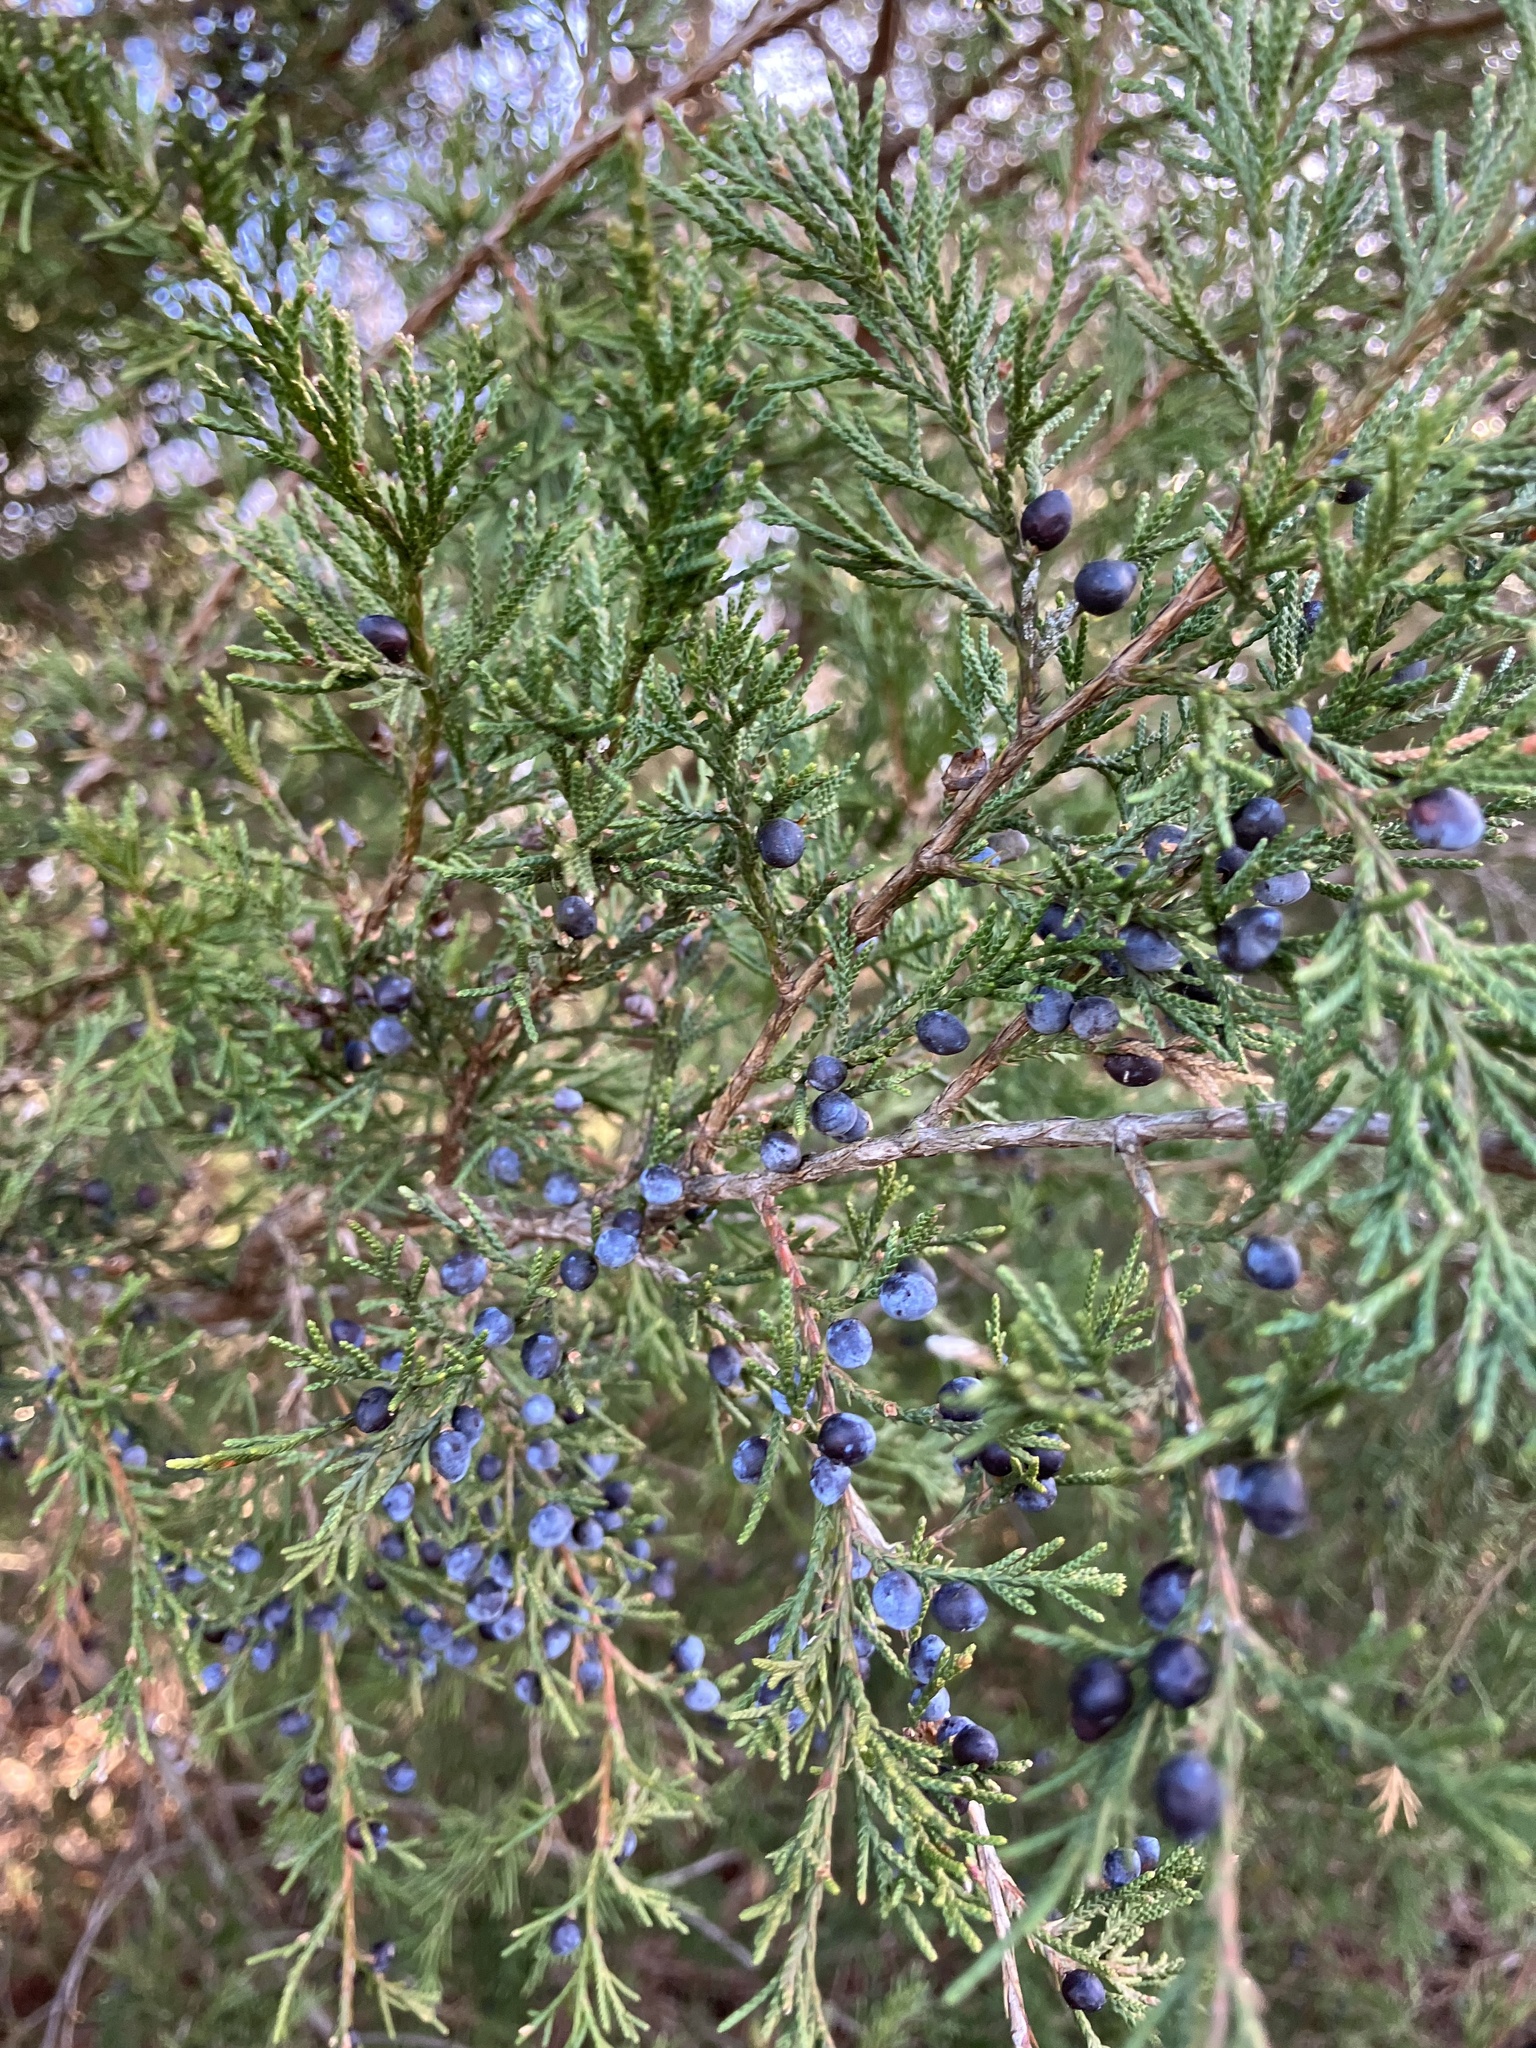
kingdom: Plantae
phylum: Tracheophyta
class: Pinopsida
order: Pinales
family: Cupressaceae
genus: Juniperus
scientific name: Juniperus virginiana
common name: Red juniper
